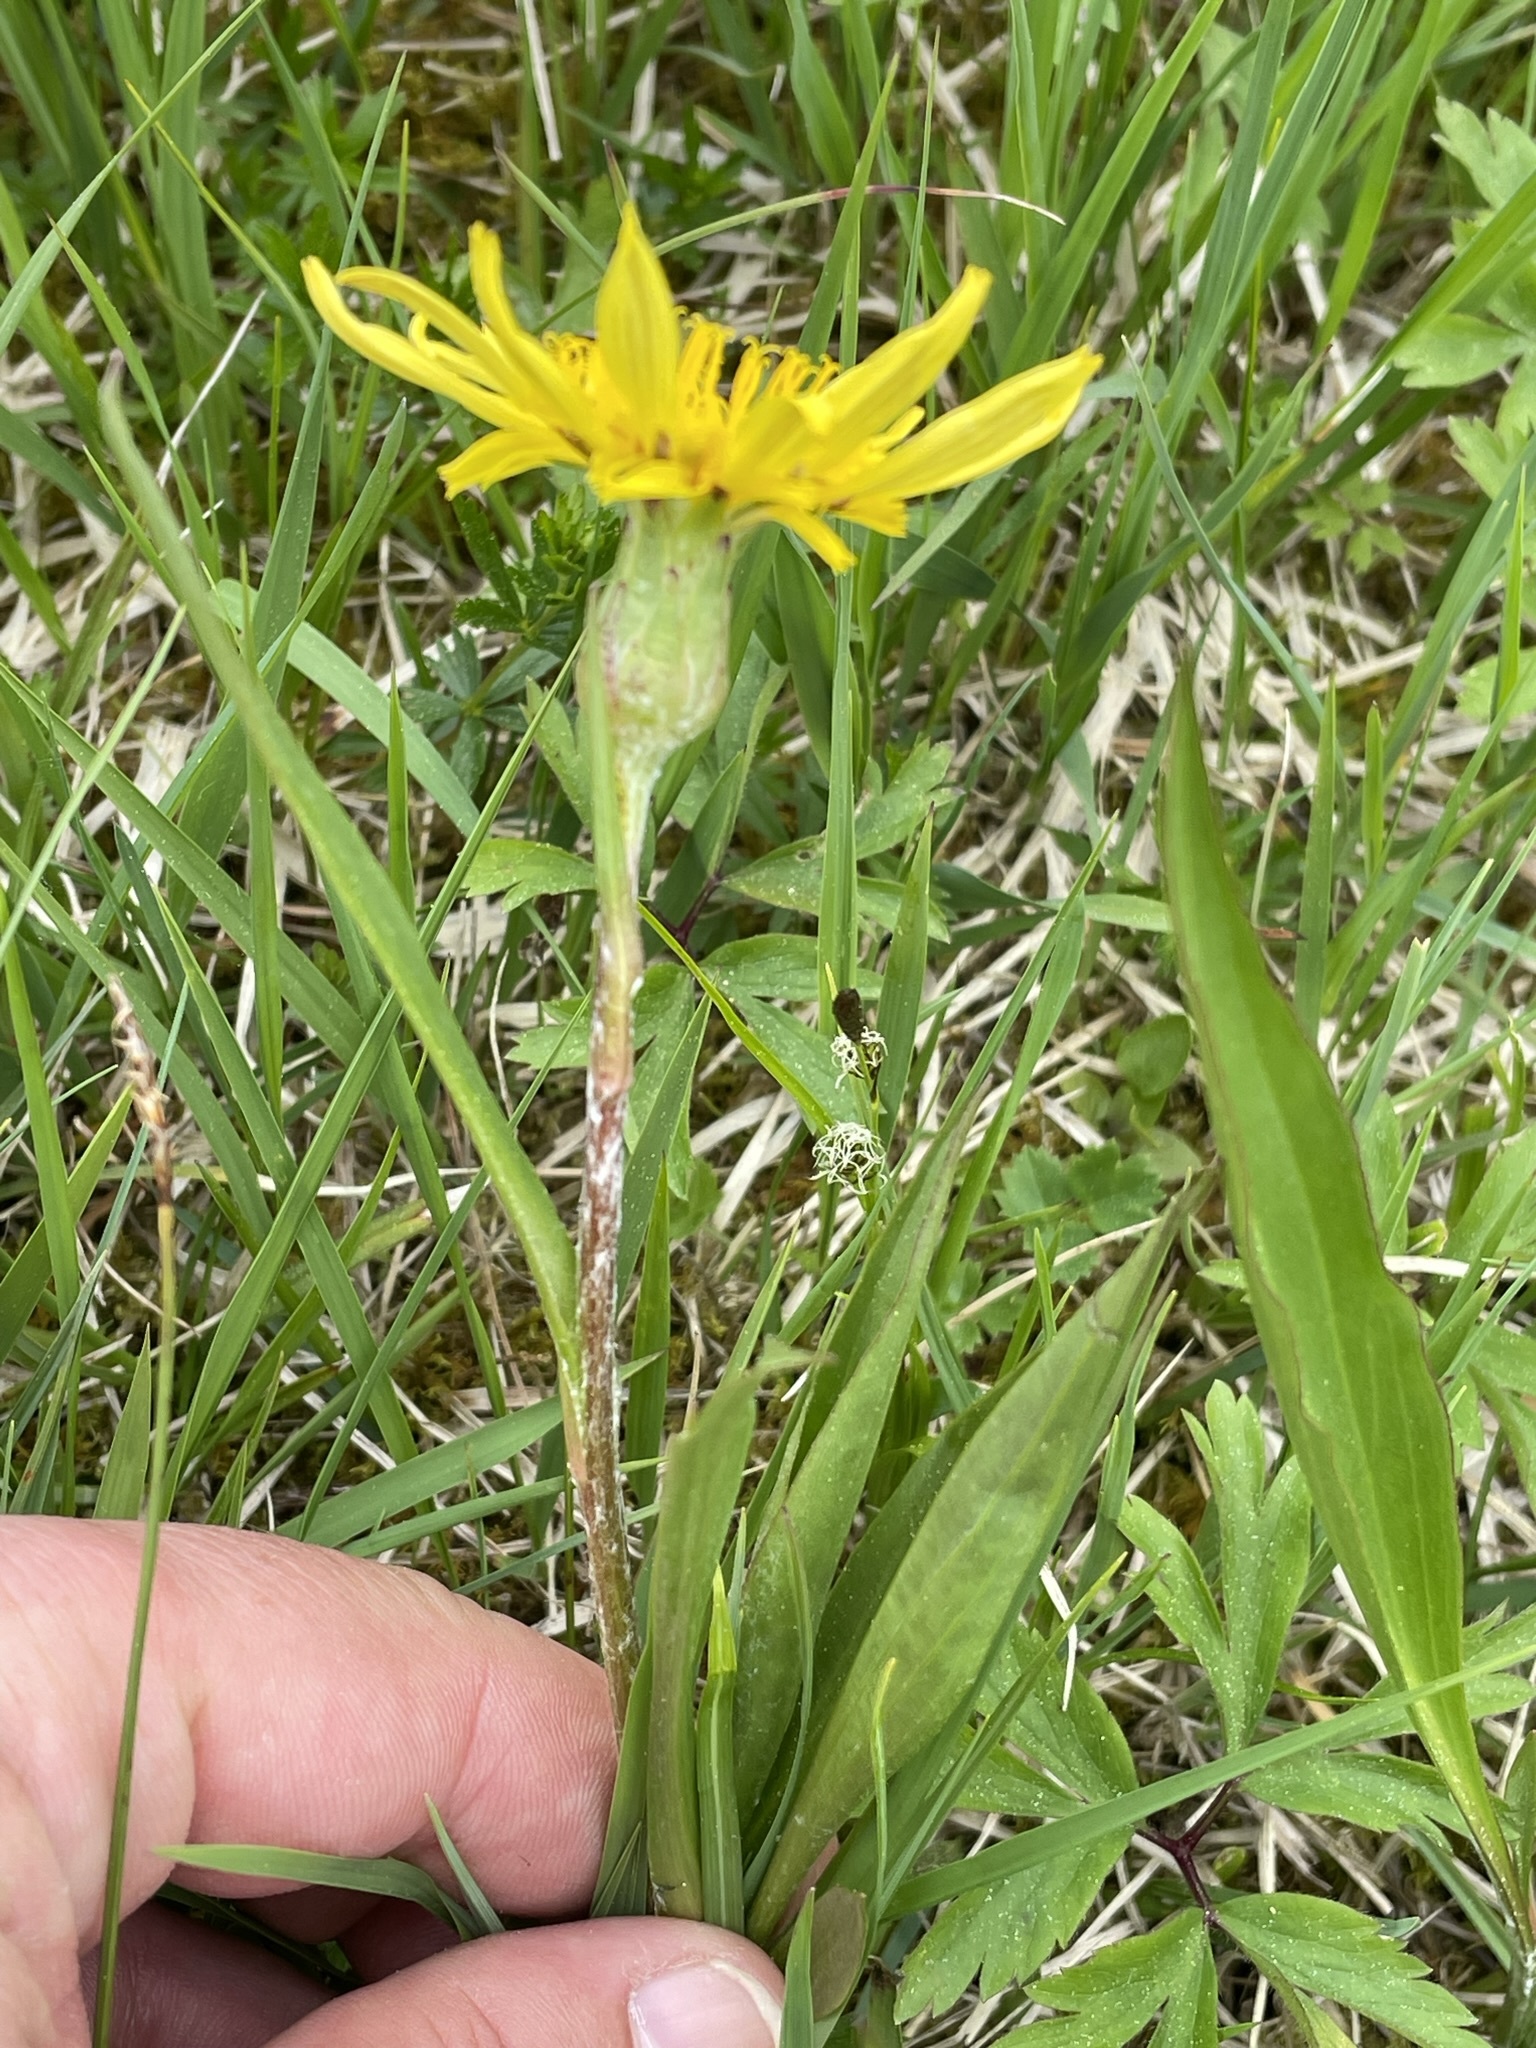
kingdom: Plantae
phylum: Tracheophyta
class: Magnoliopsida
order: Asterales
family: Asteraceae
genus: Scorzonera
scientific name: Scorzonera humilis
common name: Viper's-grass
